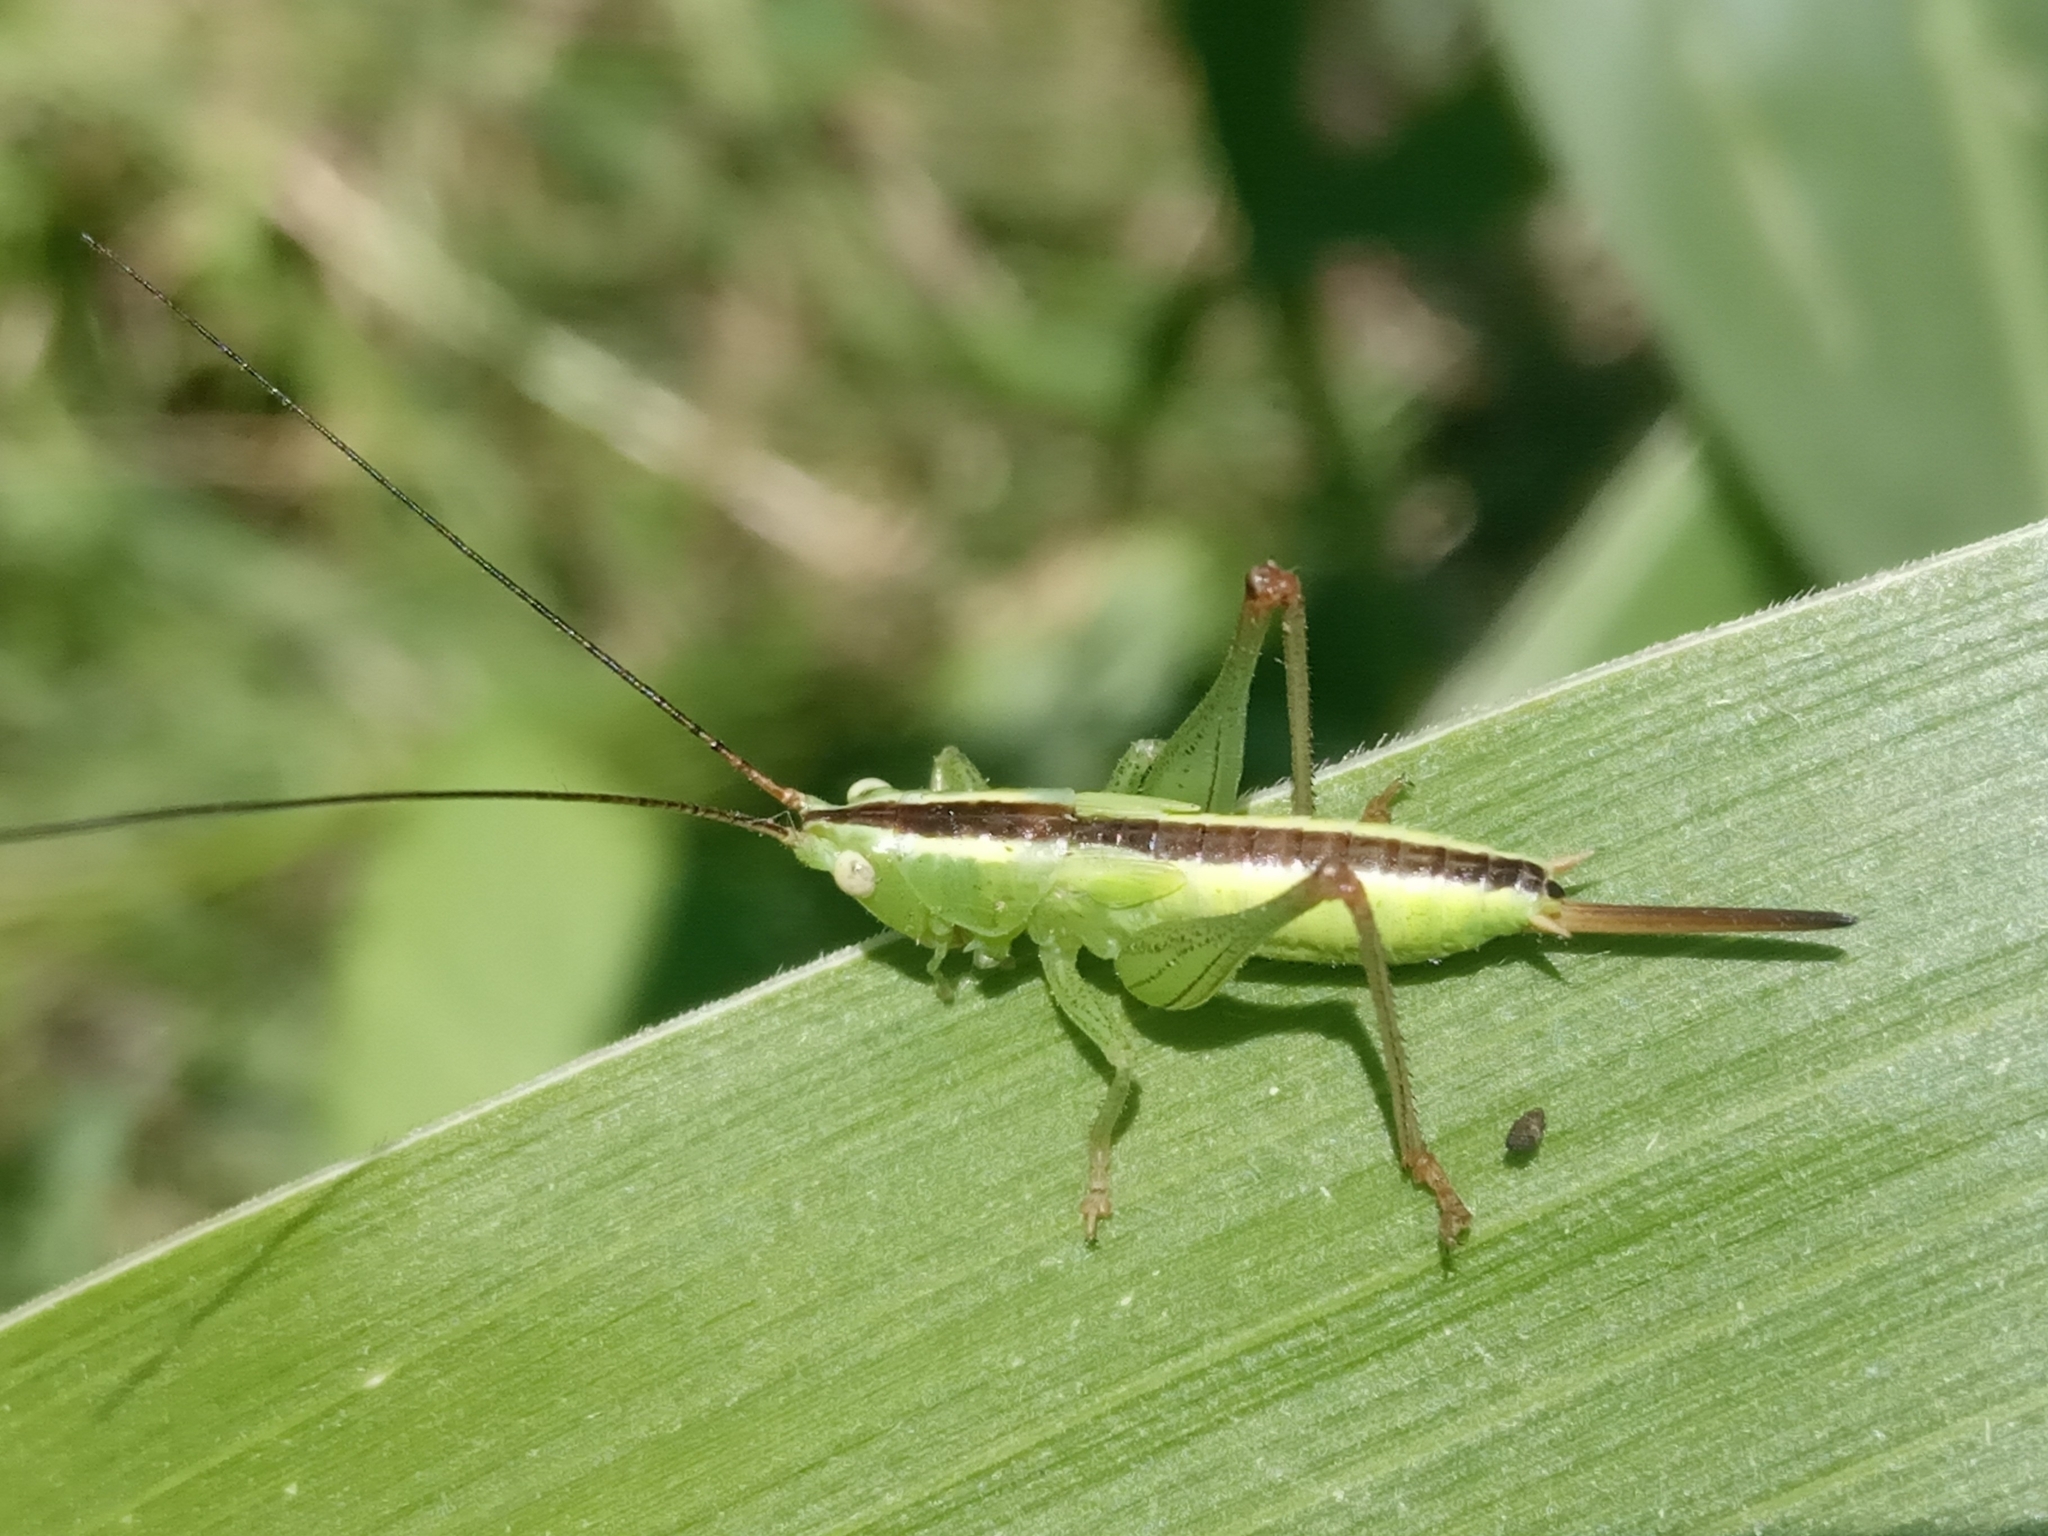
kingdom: Animalia
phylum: Arthropoda
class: Insecta
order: Orthoptera
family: Tettigoniidae
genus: Conocephalus
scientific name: Conocephalus
